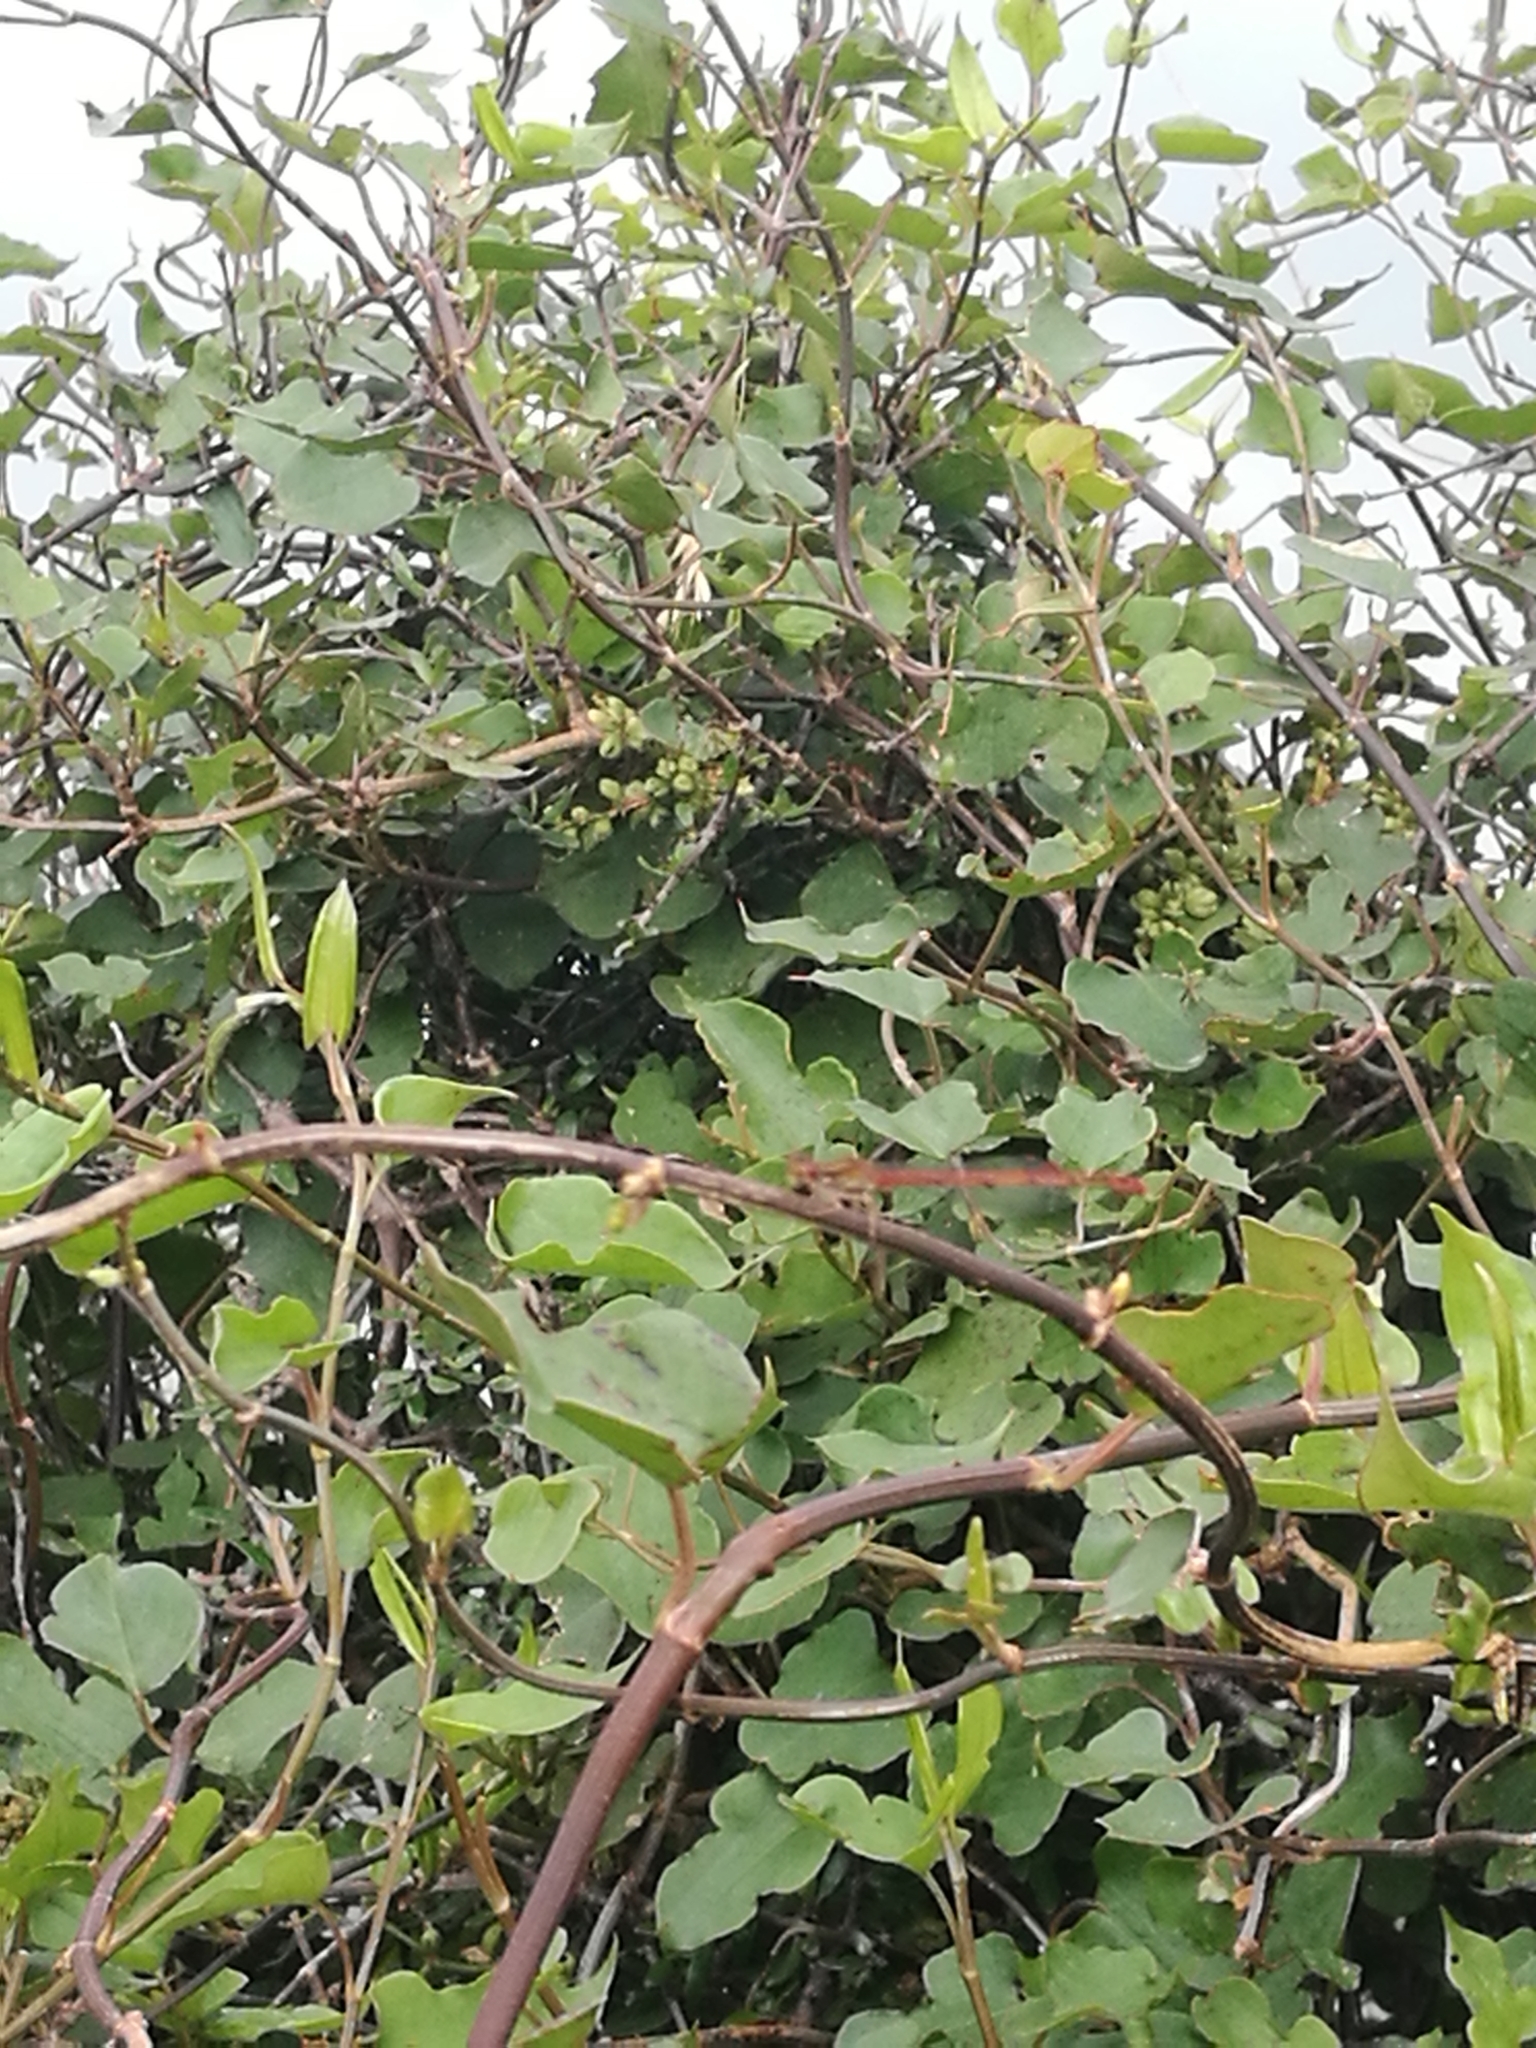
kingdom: Animalia
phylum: Arthropoda
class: Insecta
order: Odonata
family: Coenagrionidae
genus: Xanthocnemis
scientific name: Xanthocnemis zealandica
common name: Common redcoat damselfly
